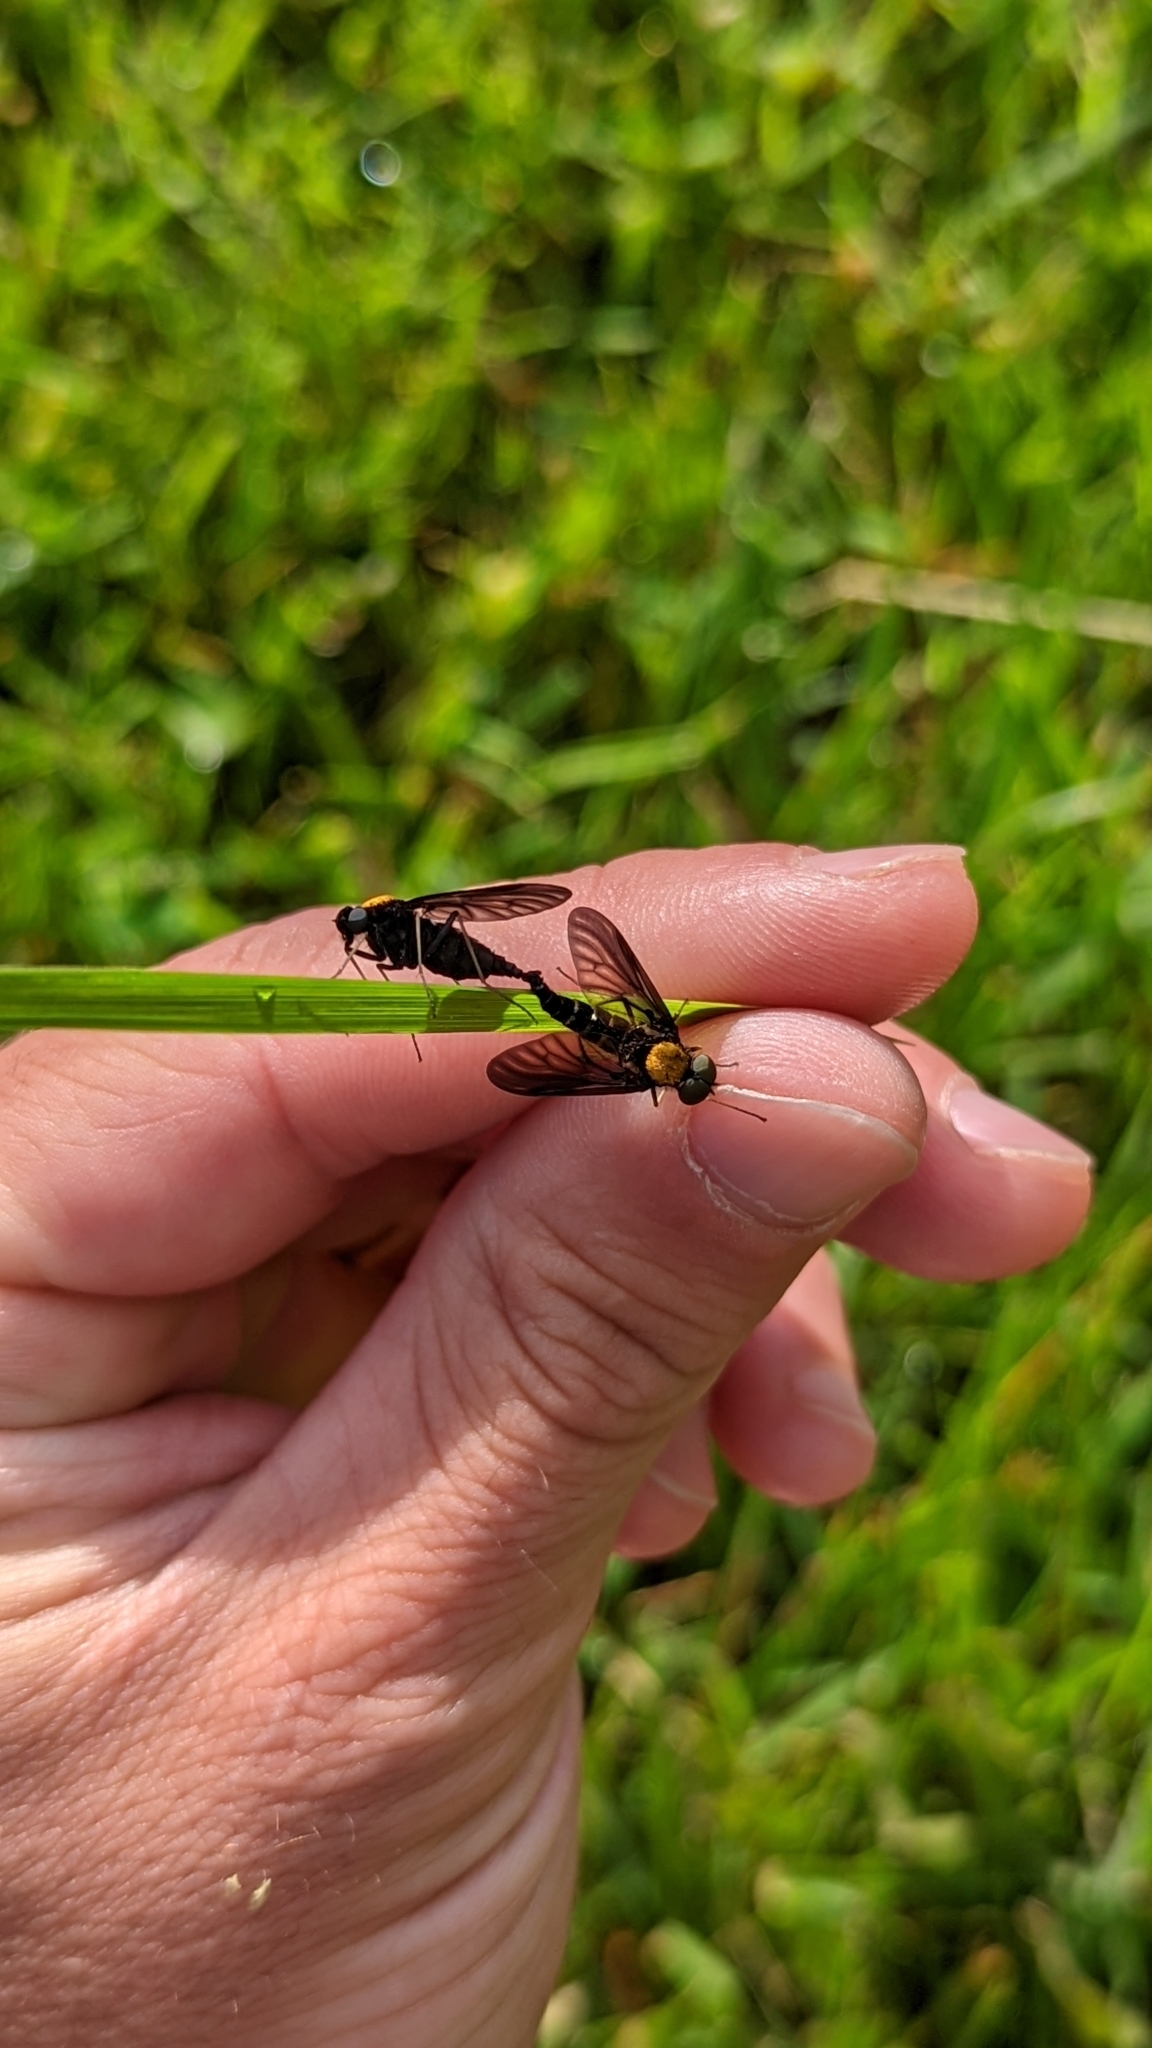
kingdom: Animalia
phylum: Arthropoda
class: Insecta
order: Diptera
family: Rhagionidae
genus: Chrysopilus
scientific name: Chrysopilus thoracicus
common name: Golden-backed snipe fly
